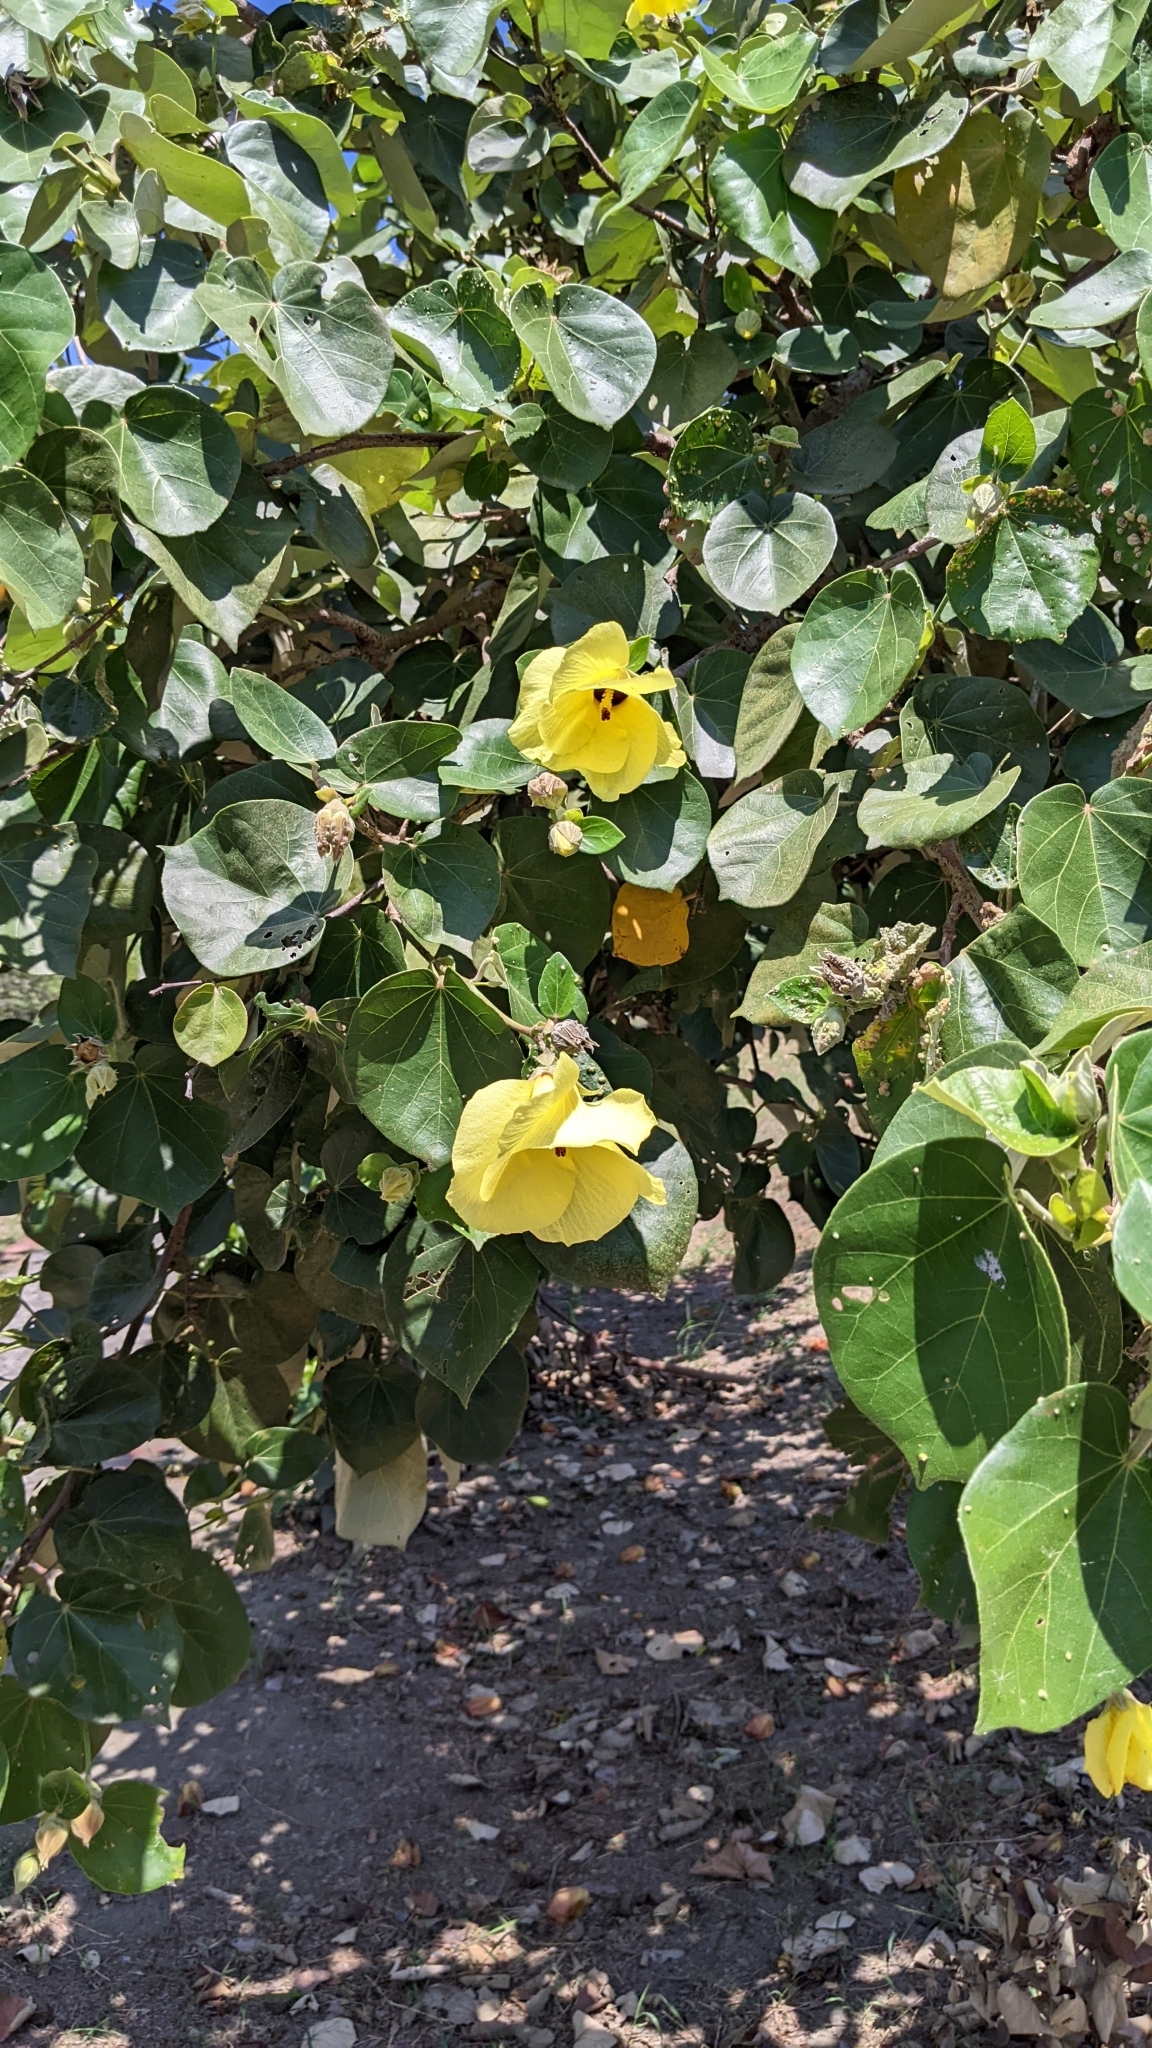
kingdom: Plantae
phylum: Tracheophyta
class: Magnoliopsida
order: Malvales
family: Malvaceae
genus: Talipariti
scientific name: Talipariti tiliaceum
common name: Sea hibiscus
